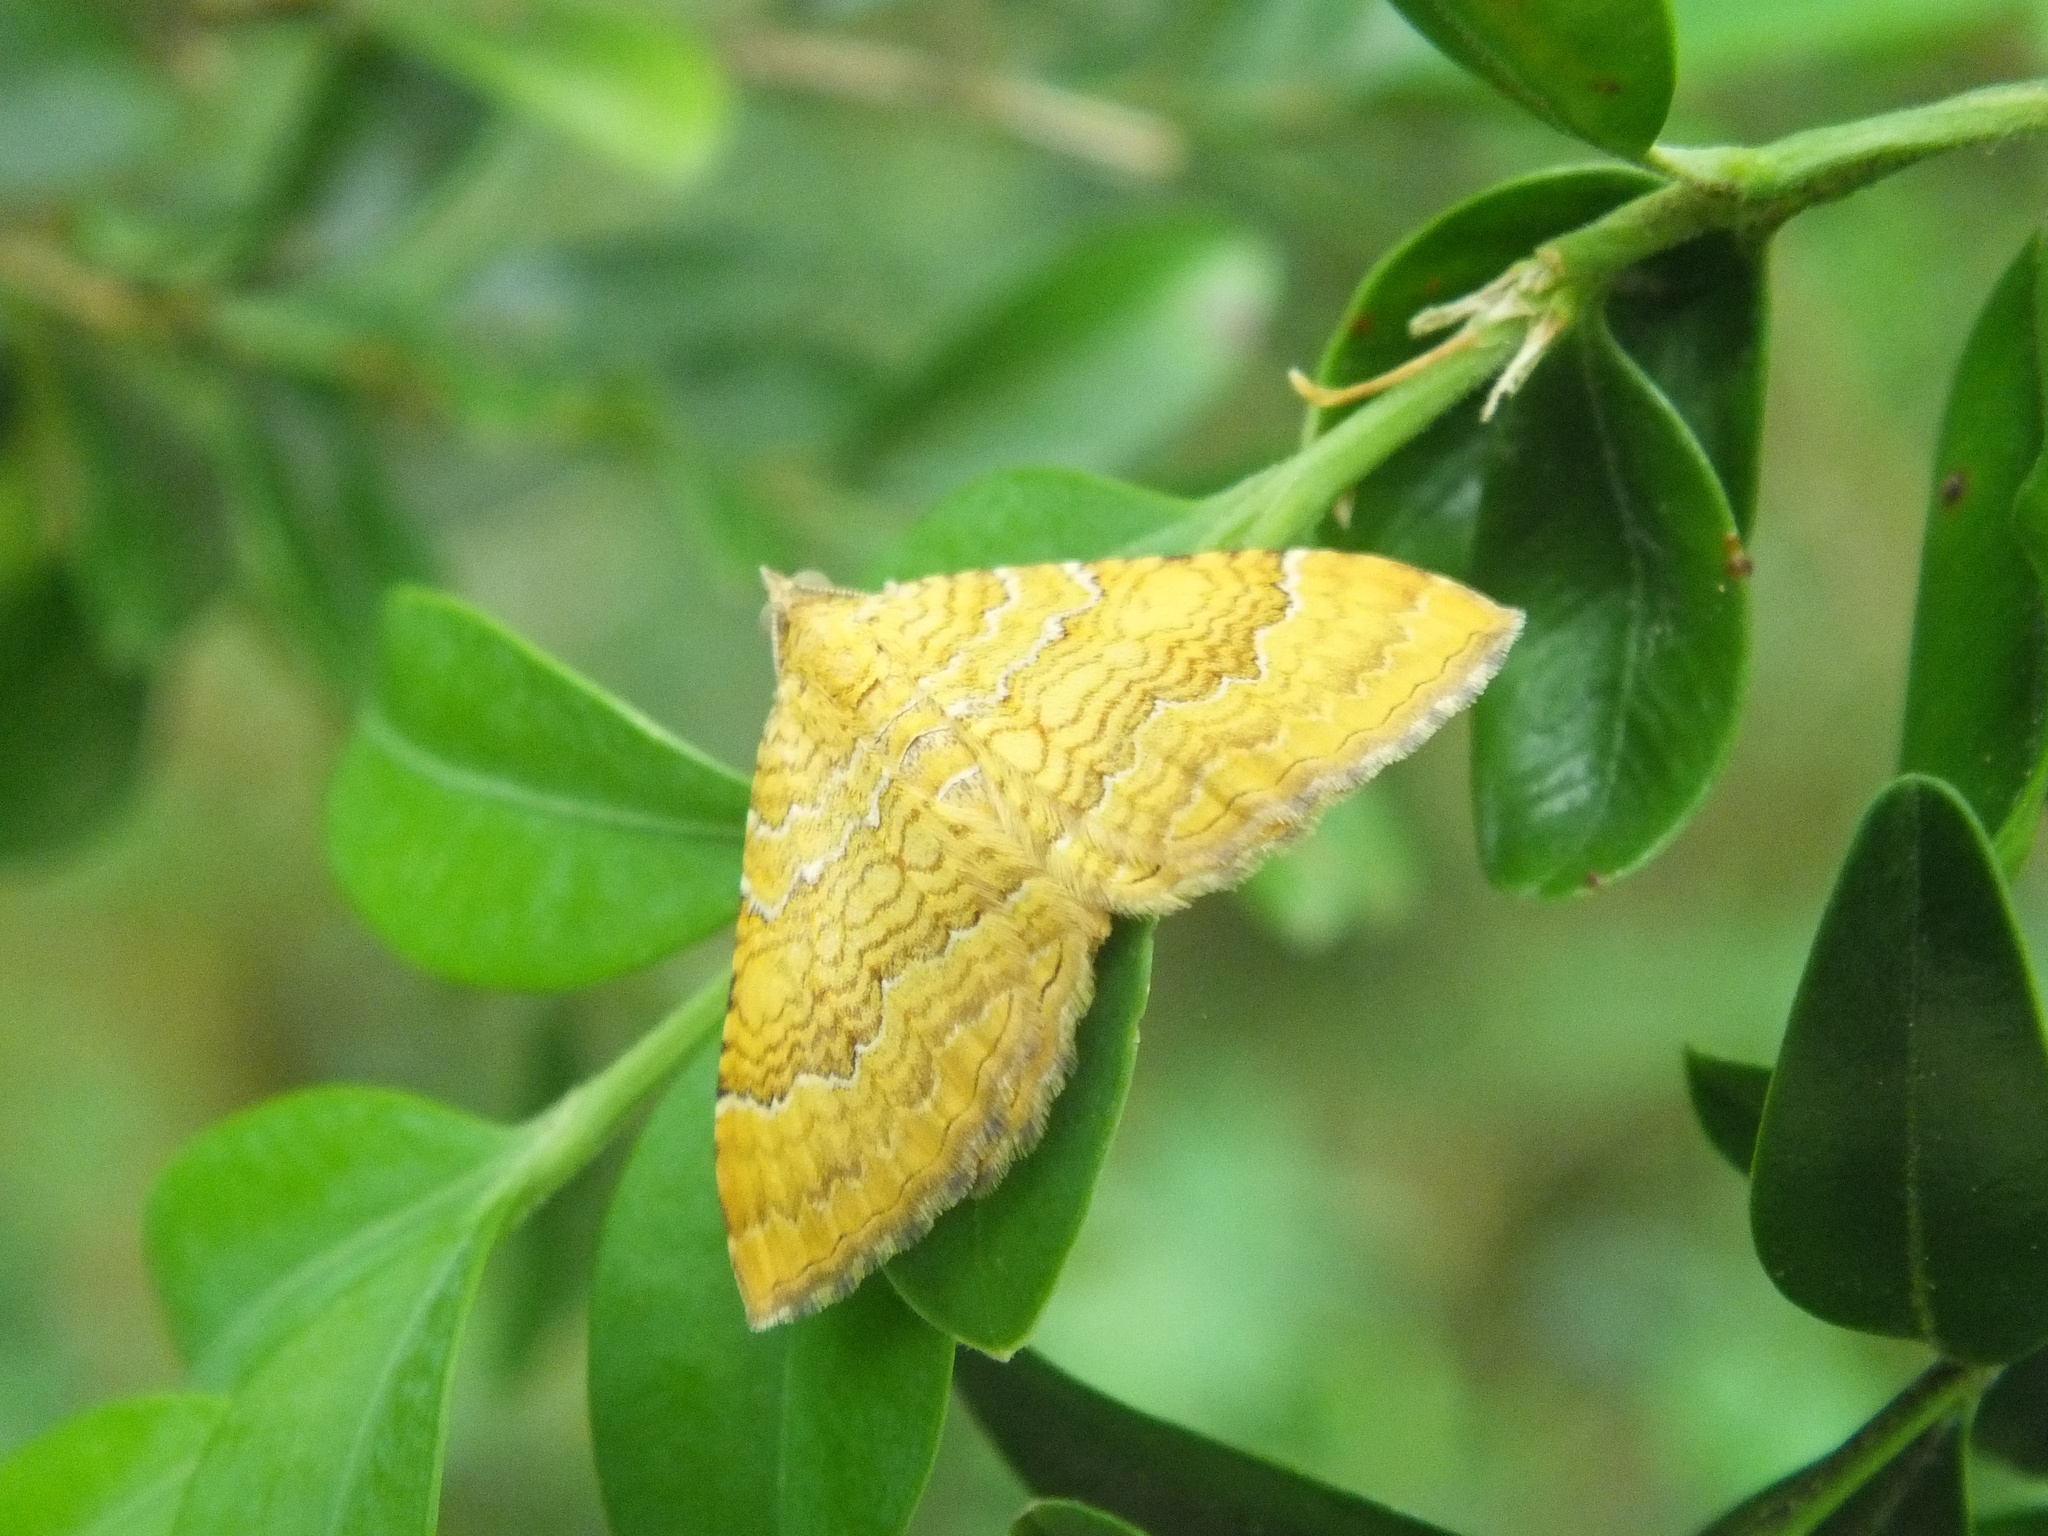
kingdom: Animalia
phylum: Arthropoda
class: Insecta
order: Lepidoptera
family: Geometridae
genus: Camptogramma
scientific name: Camptogramma bilineata
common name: Yellow shell
